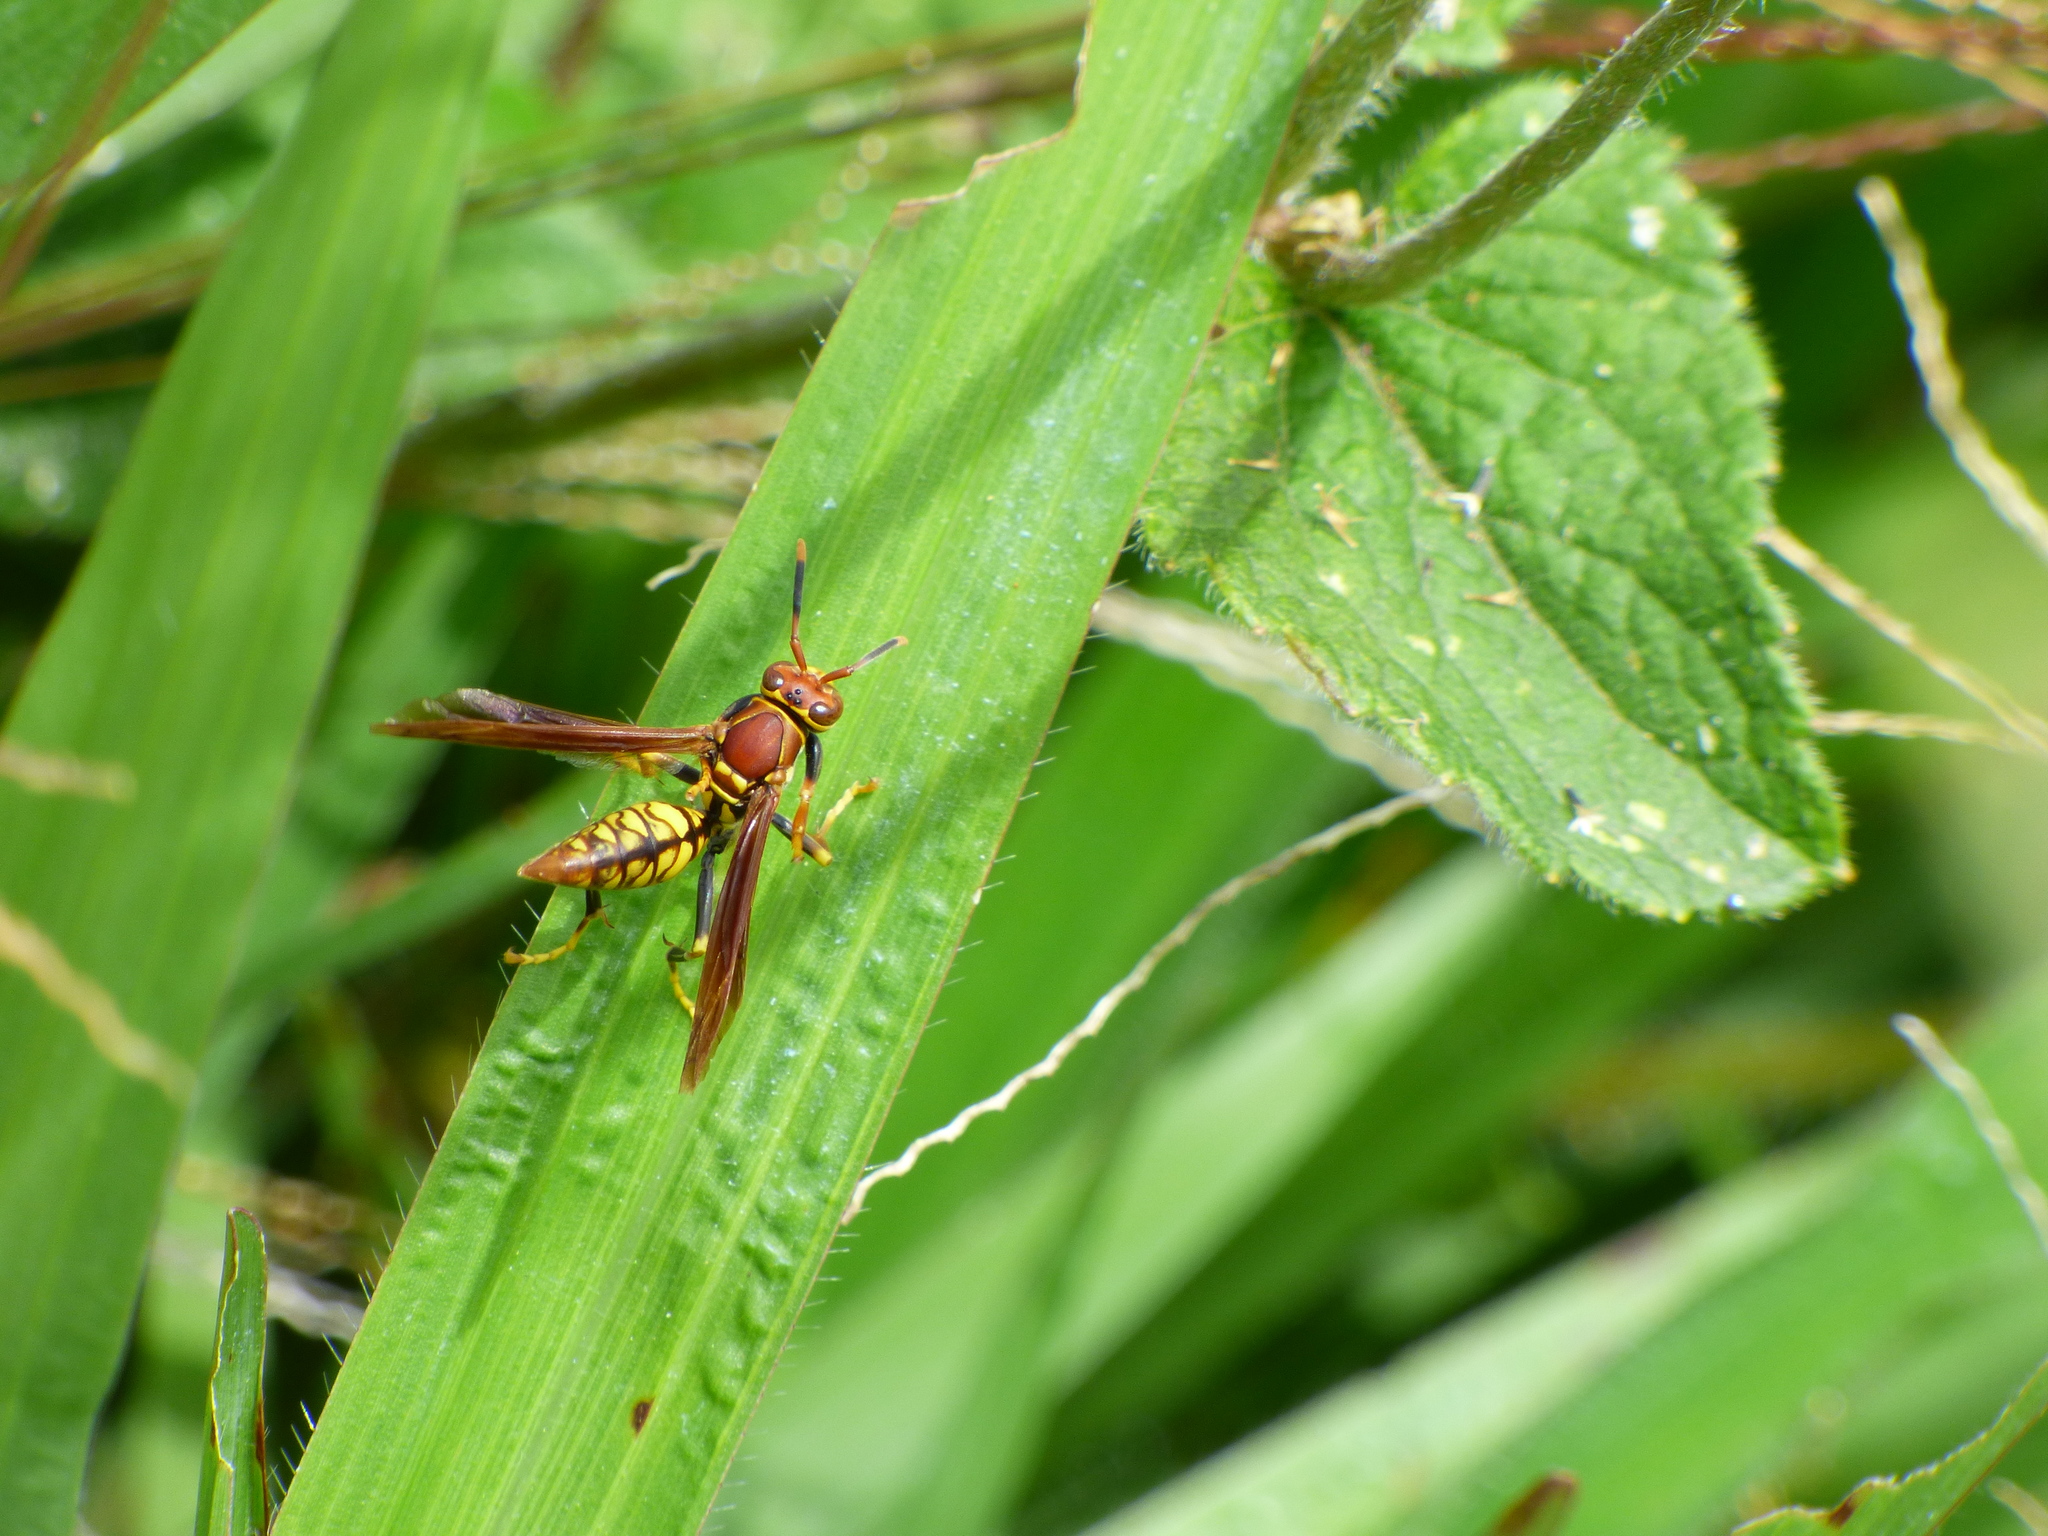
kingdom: Animalia
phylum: Arthropoda
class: Insecta
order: Hymenoptera
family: Eumenidae
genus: Polistes
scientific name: Polistes myersi
